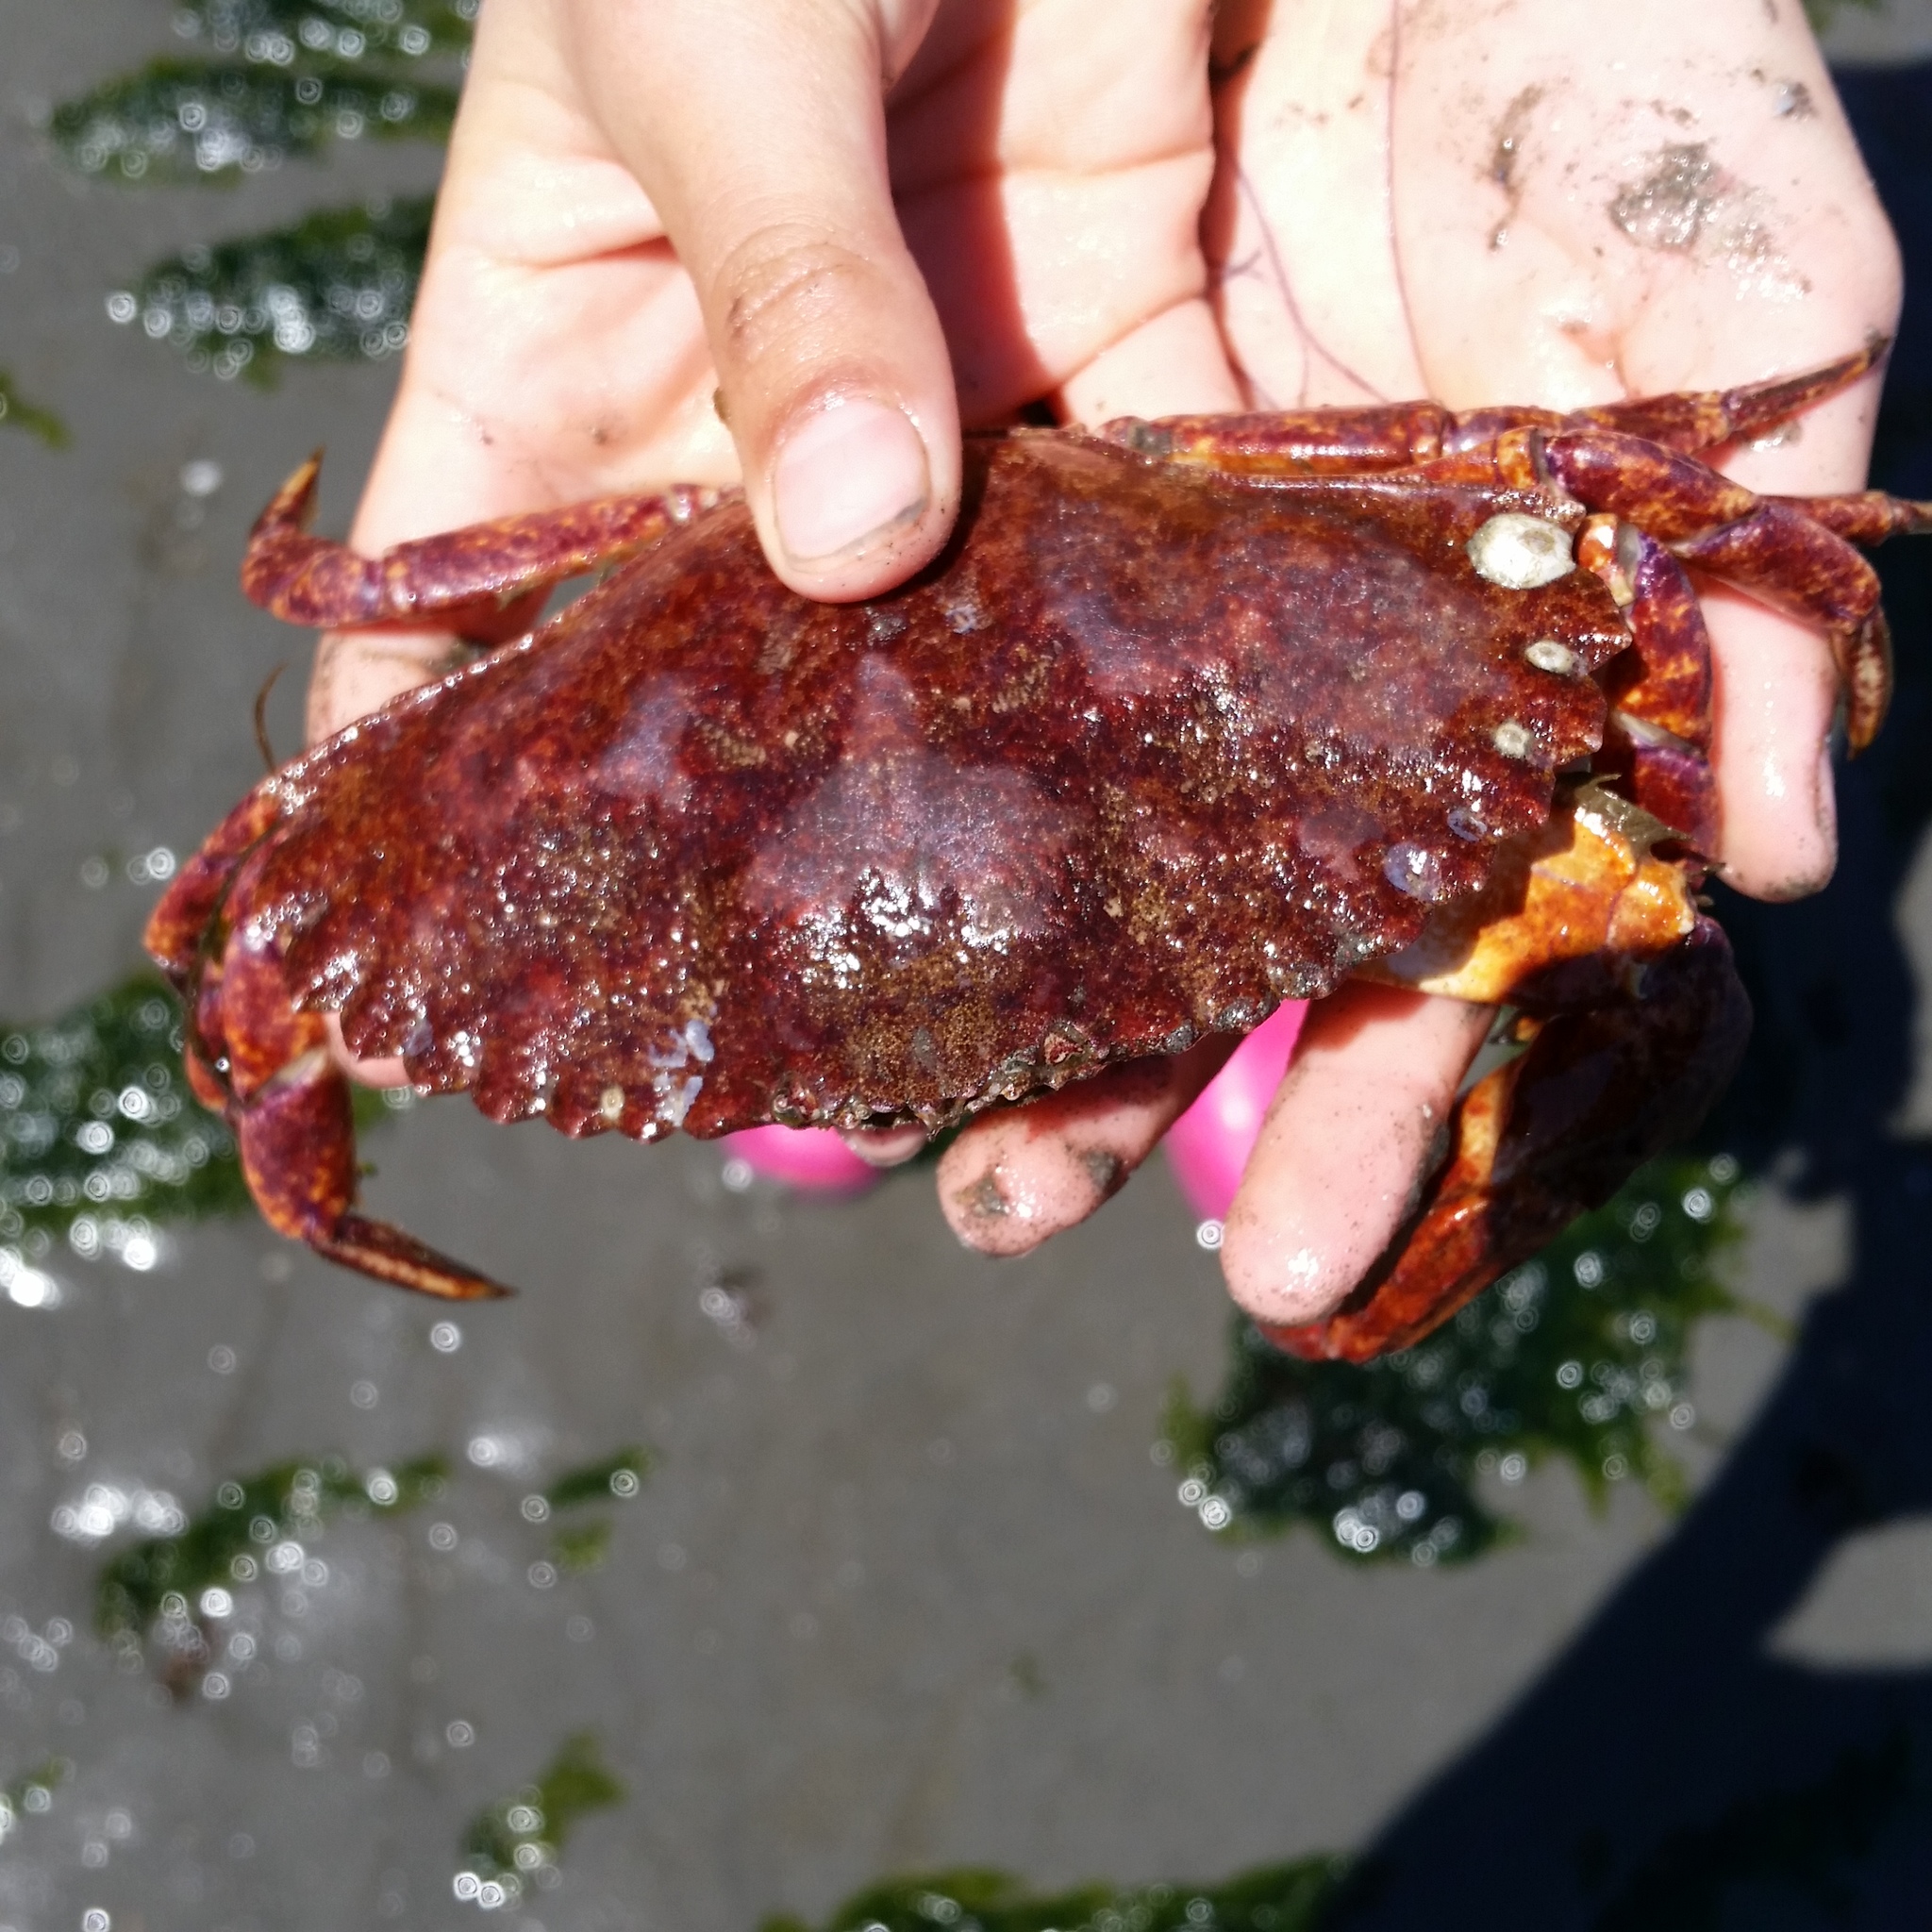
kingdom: Animalia
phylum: Arthropoda
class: Malacostraca
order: Decapoda
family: Cancridae
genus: Cancer
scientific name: Cancer productus
